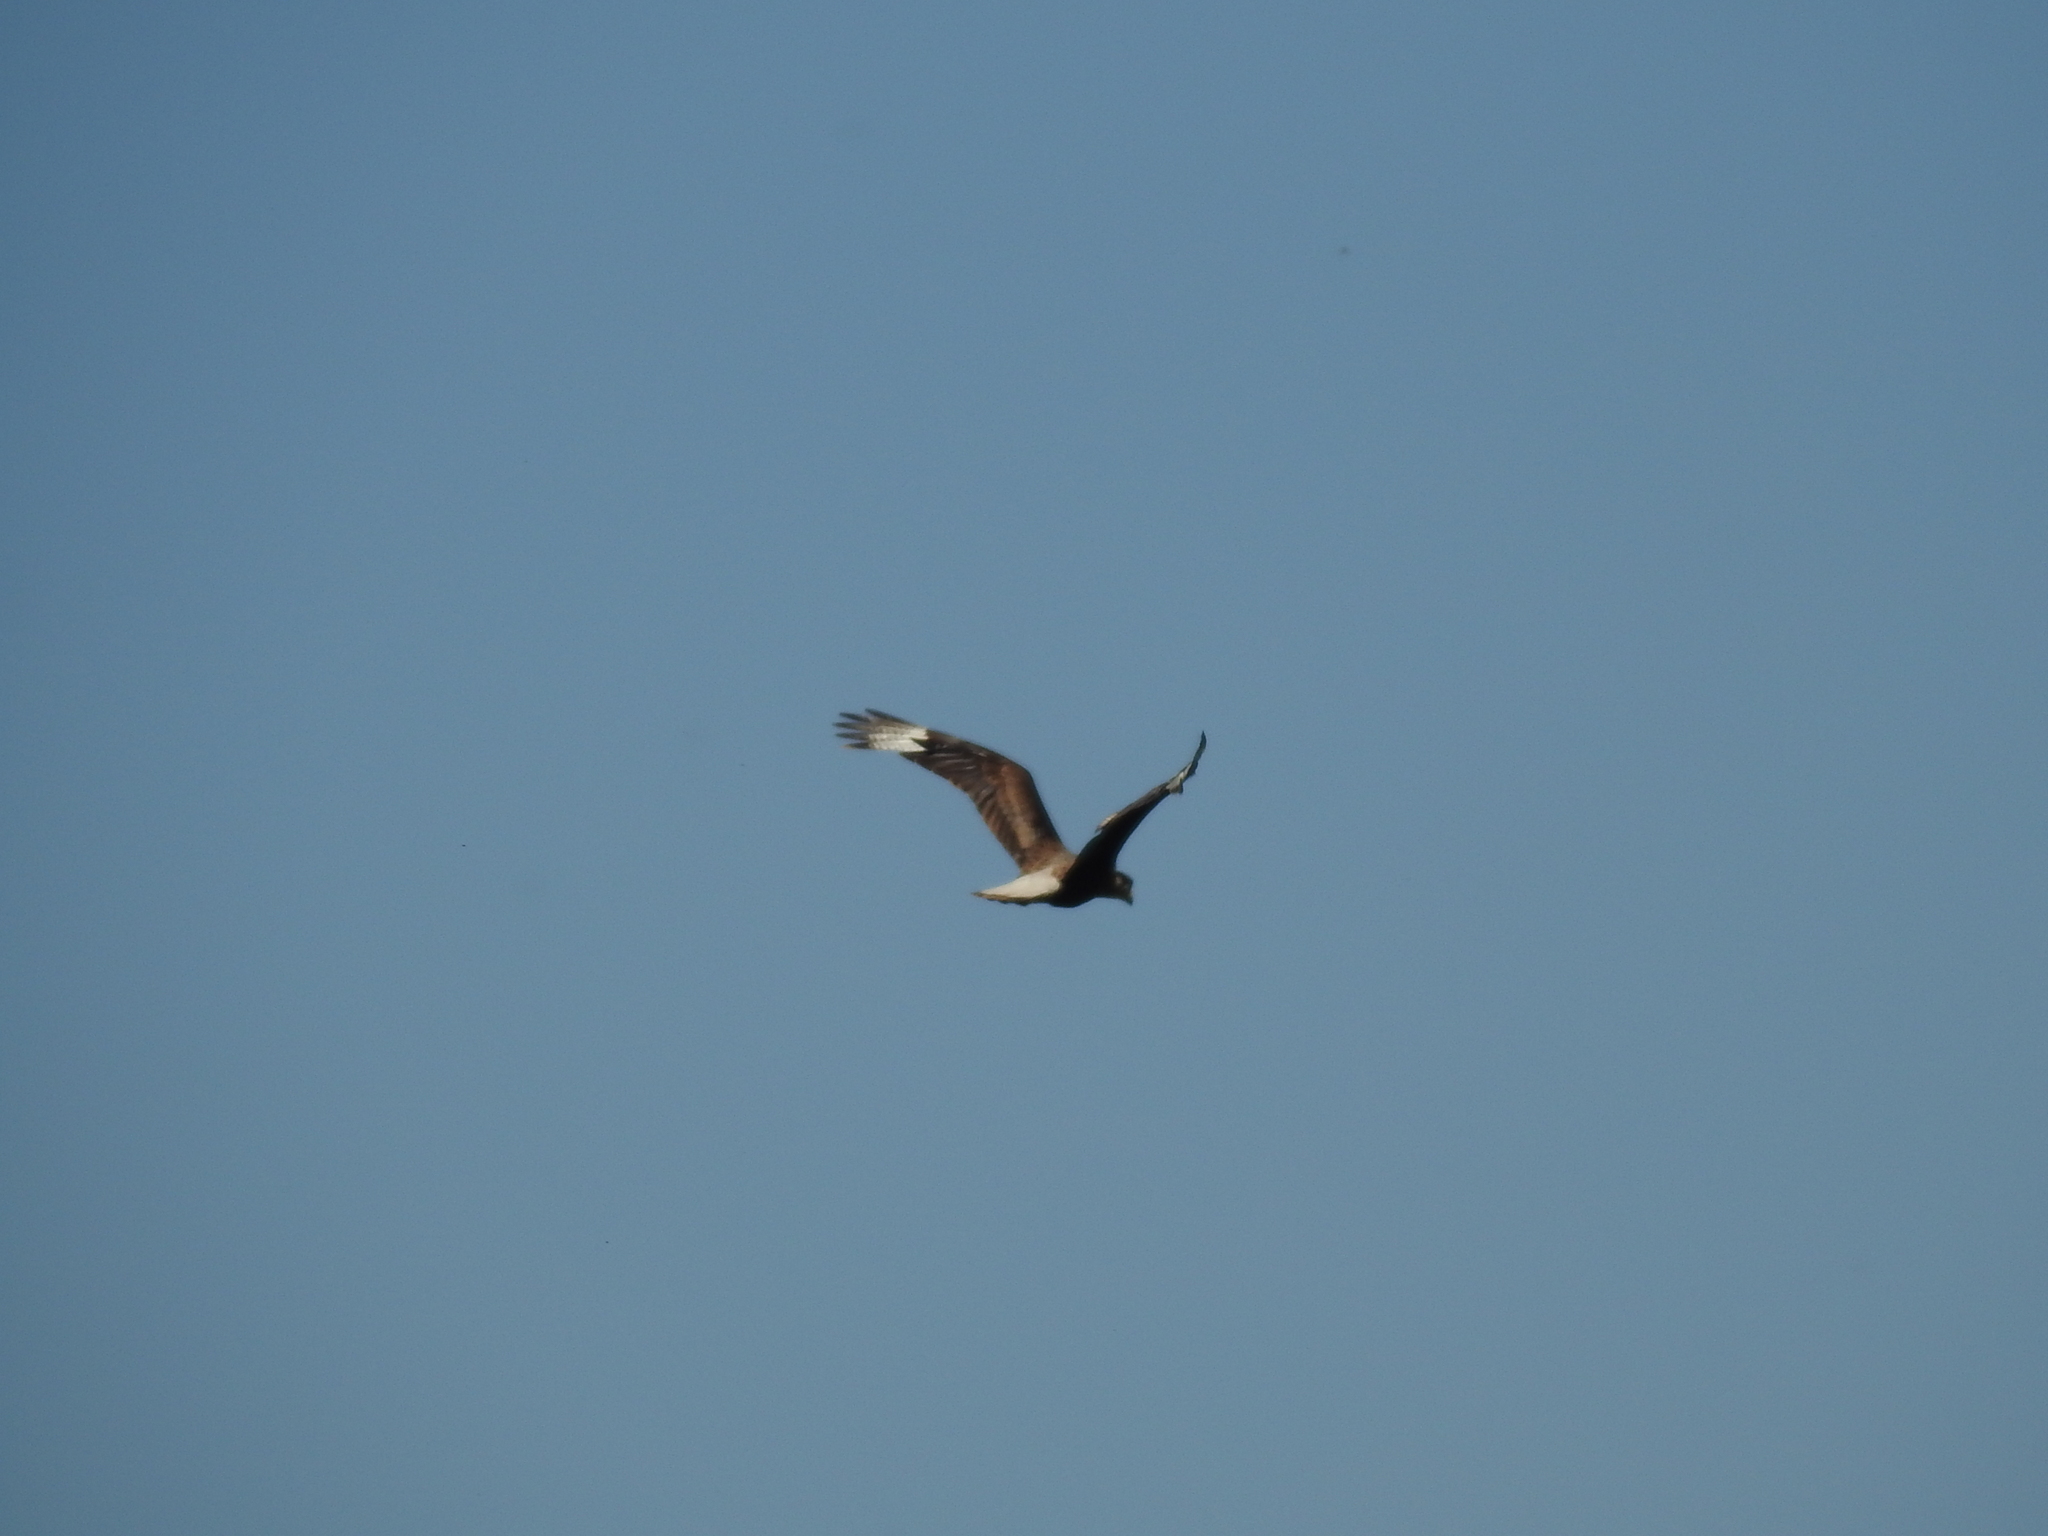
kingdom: Animalia
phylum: Chordata
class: Aves
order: Falconiformes
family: Falconidae
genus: Caracara
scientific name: Caracara plancus
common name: Southern caracara
